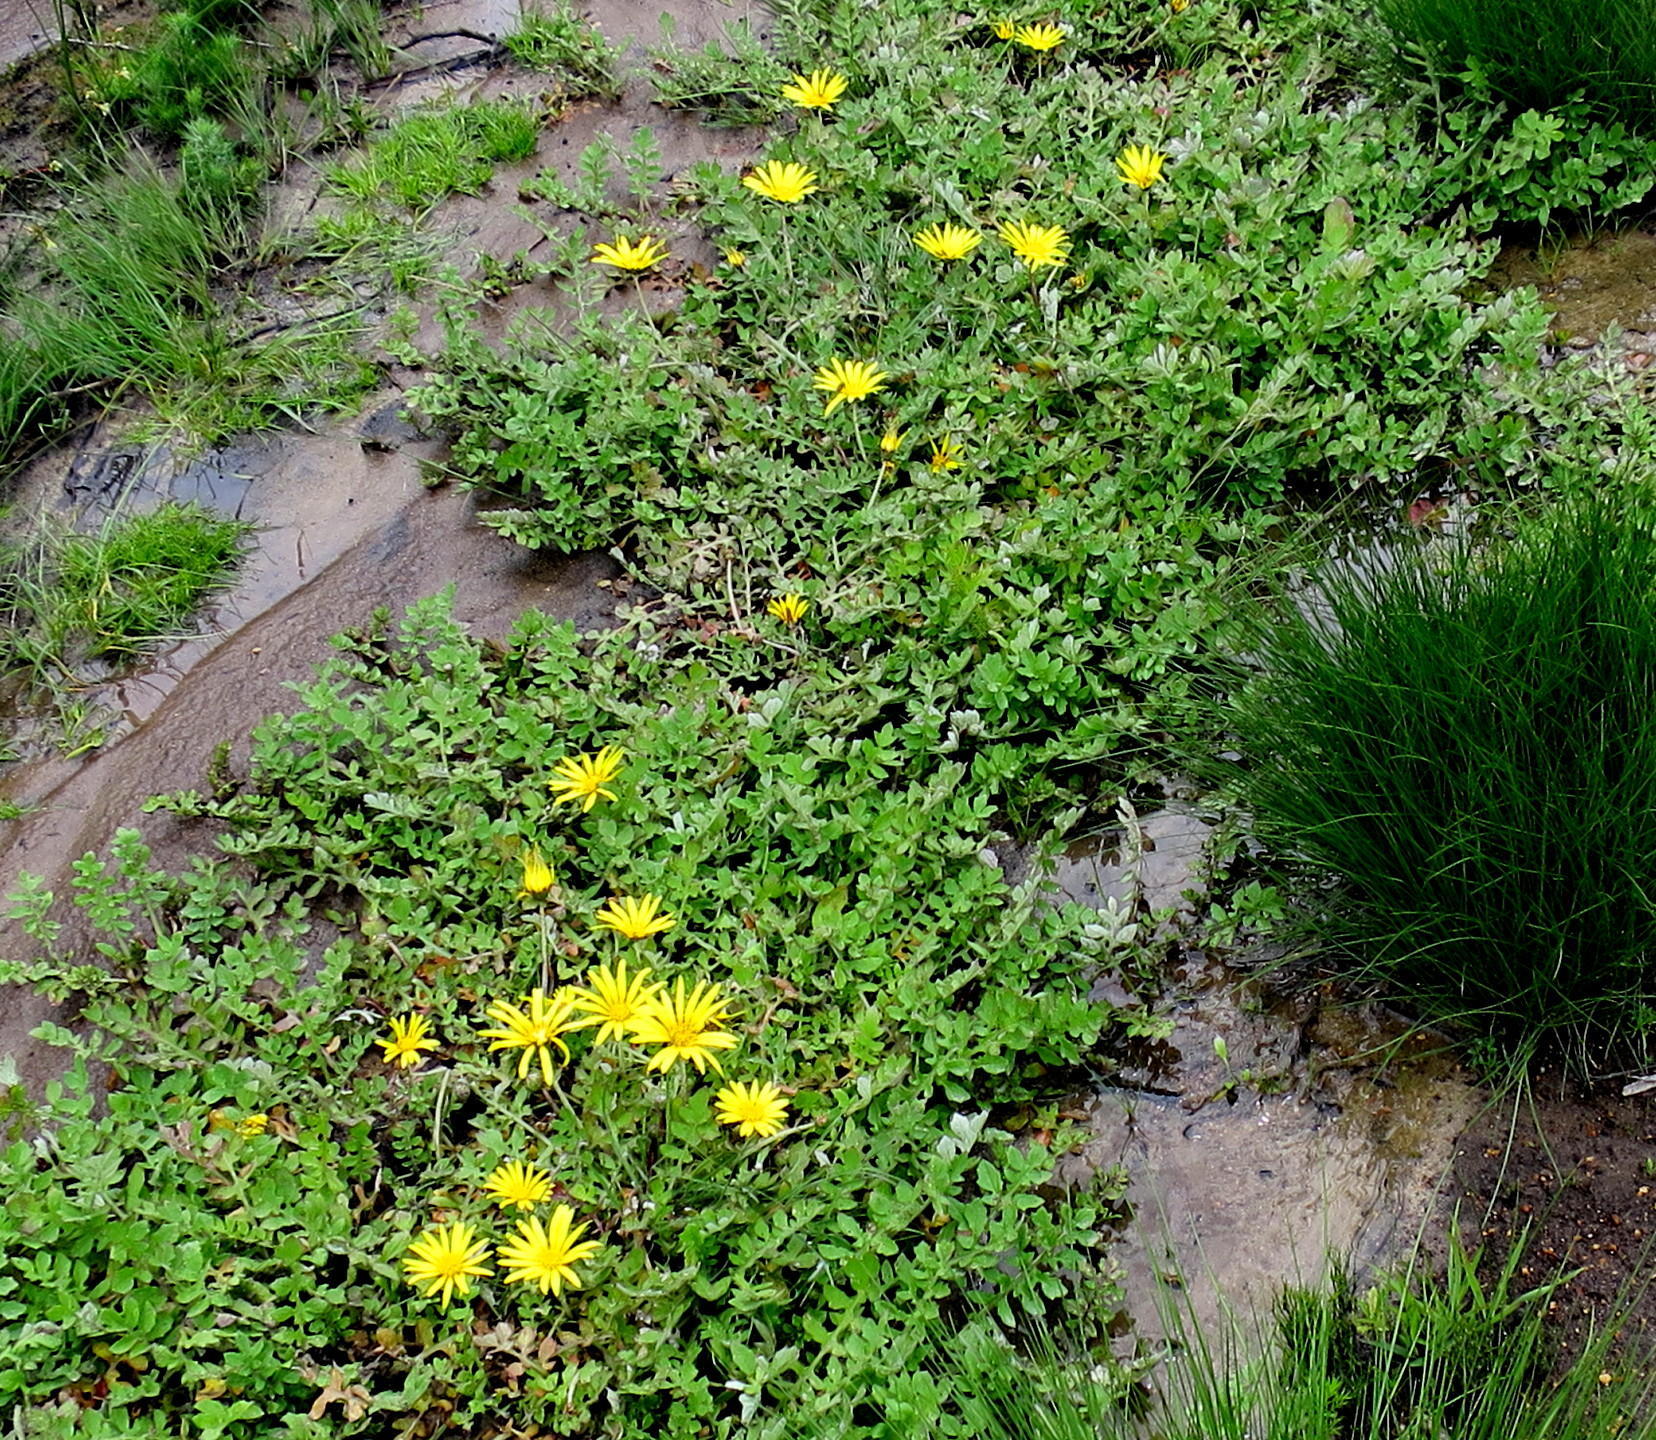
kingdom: Plantae
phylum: Tracheophyta
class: Magnoliopsida
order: Asterales
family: Asteraceae
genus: Arctotheca
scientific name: Arctotheca prostrata
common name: Capeweed
